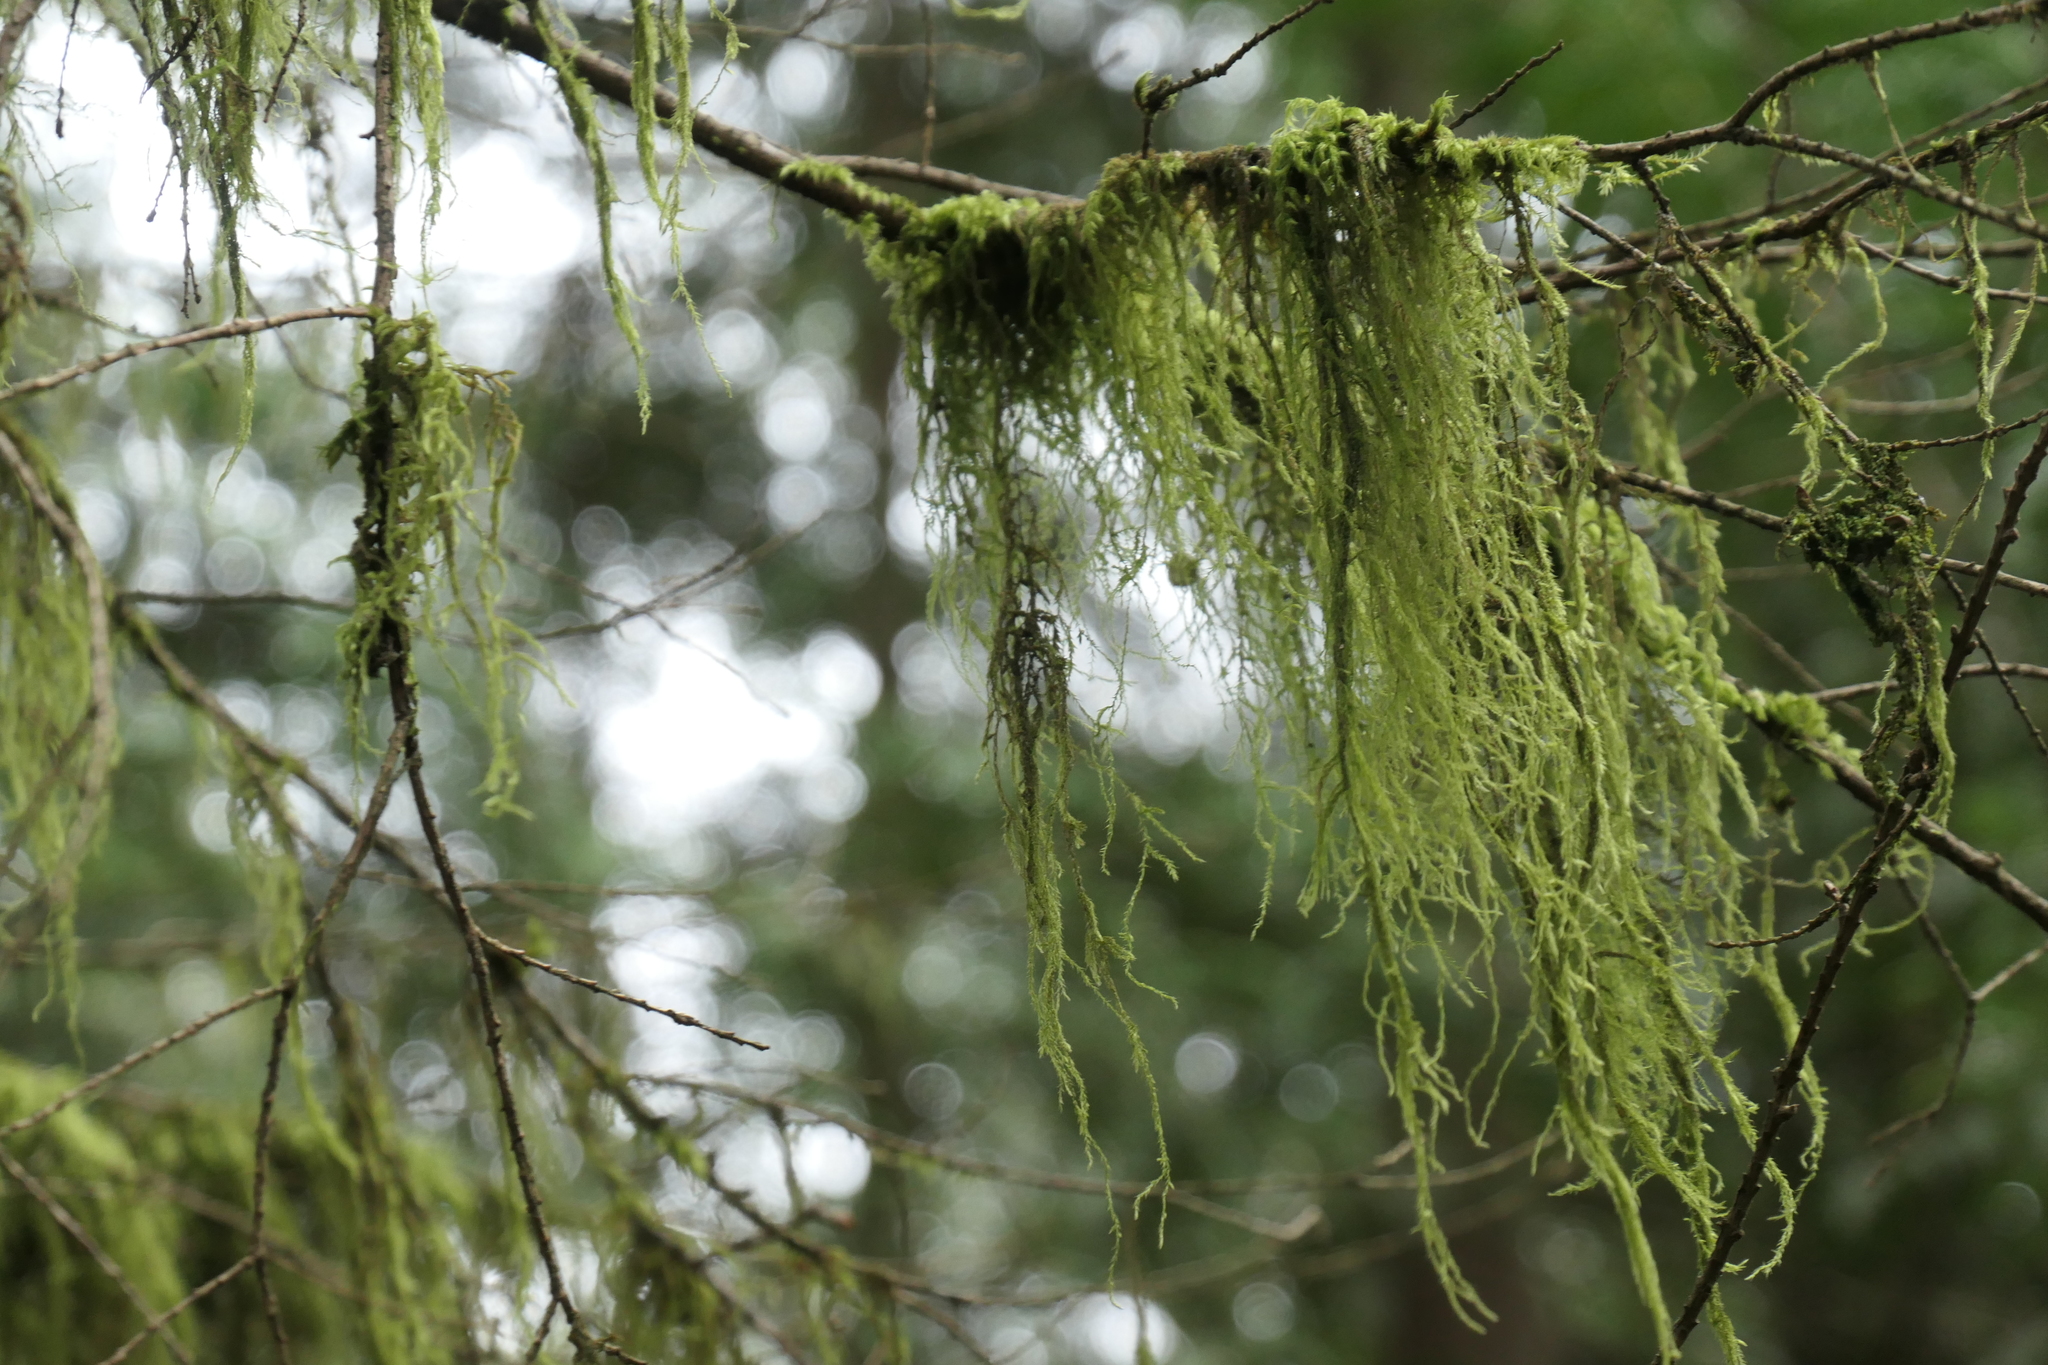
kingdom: Plantae
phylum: Bryophyta
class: Bryopsida
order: Hypnales
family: Lembophyllaceae
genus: Pseudisothecium
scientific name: Pseudisothecium stoloniferum
